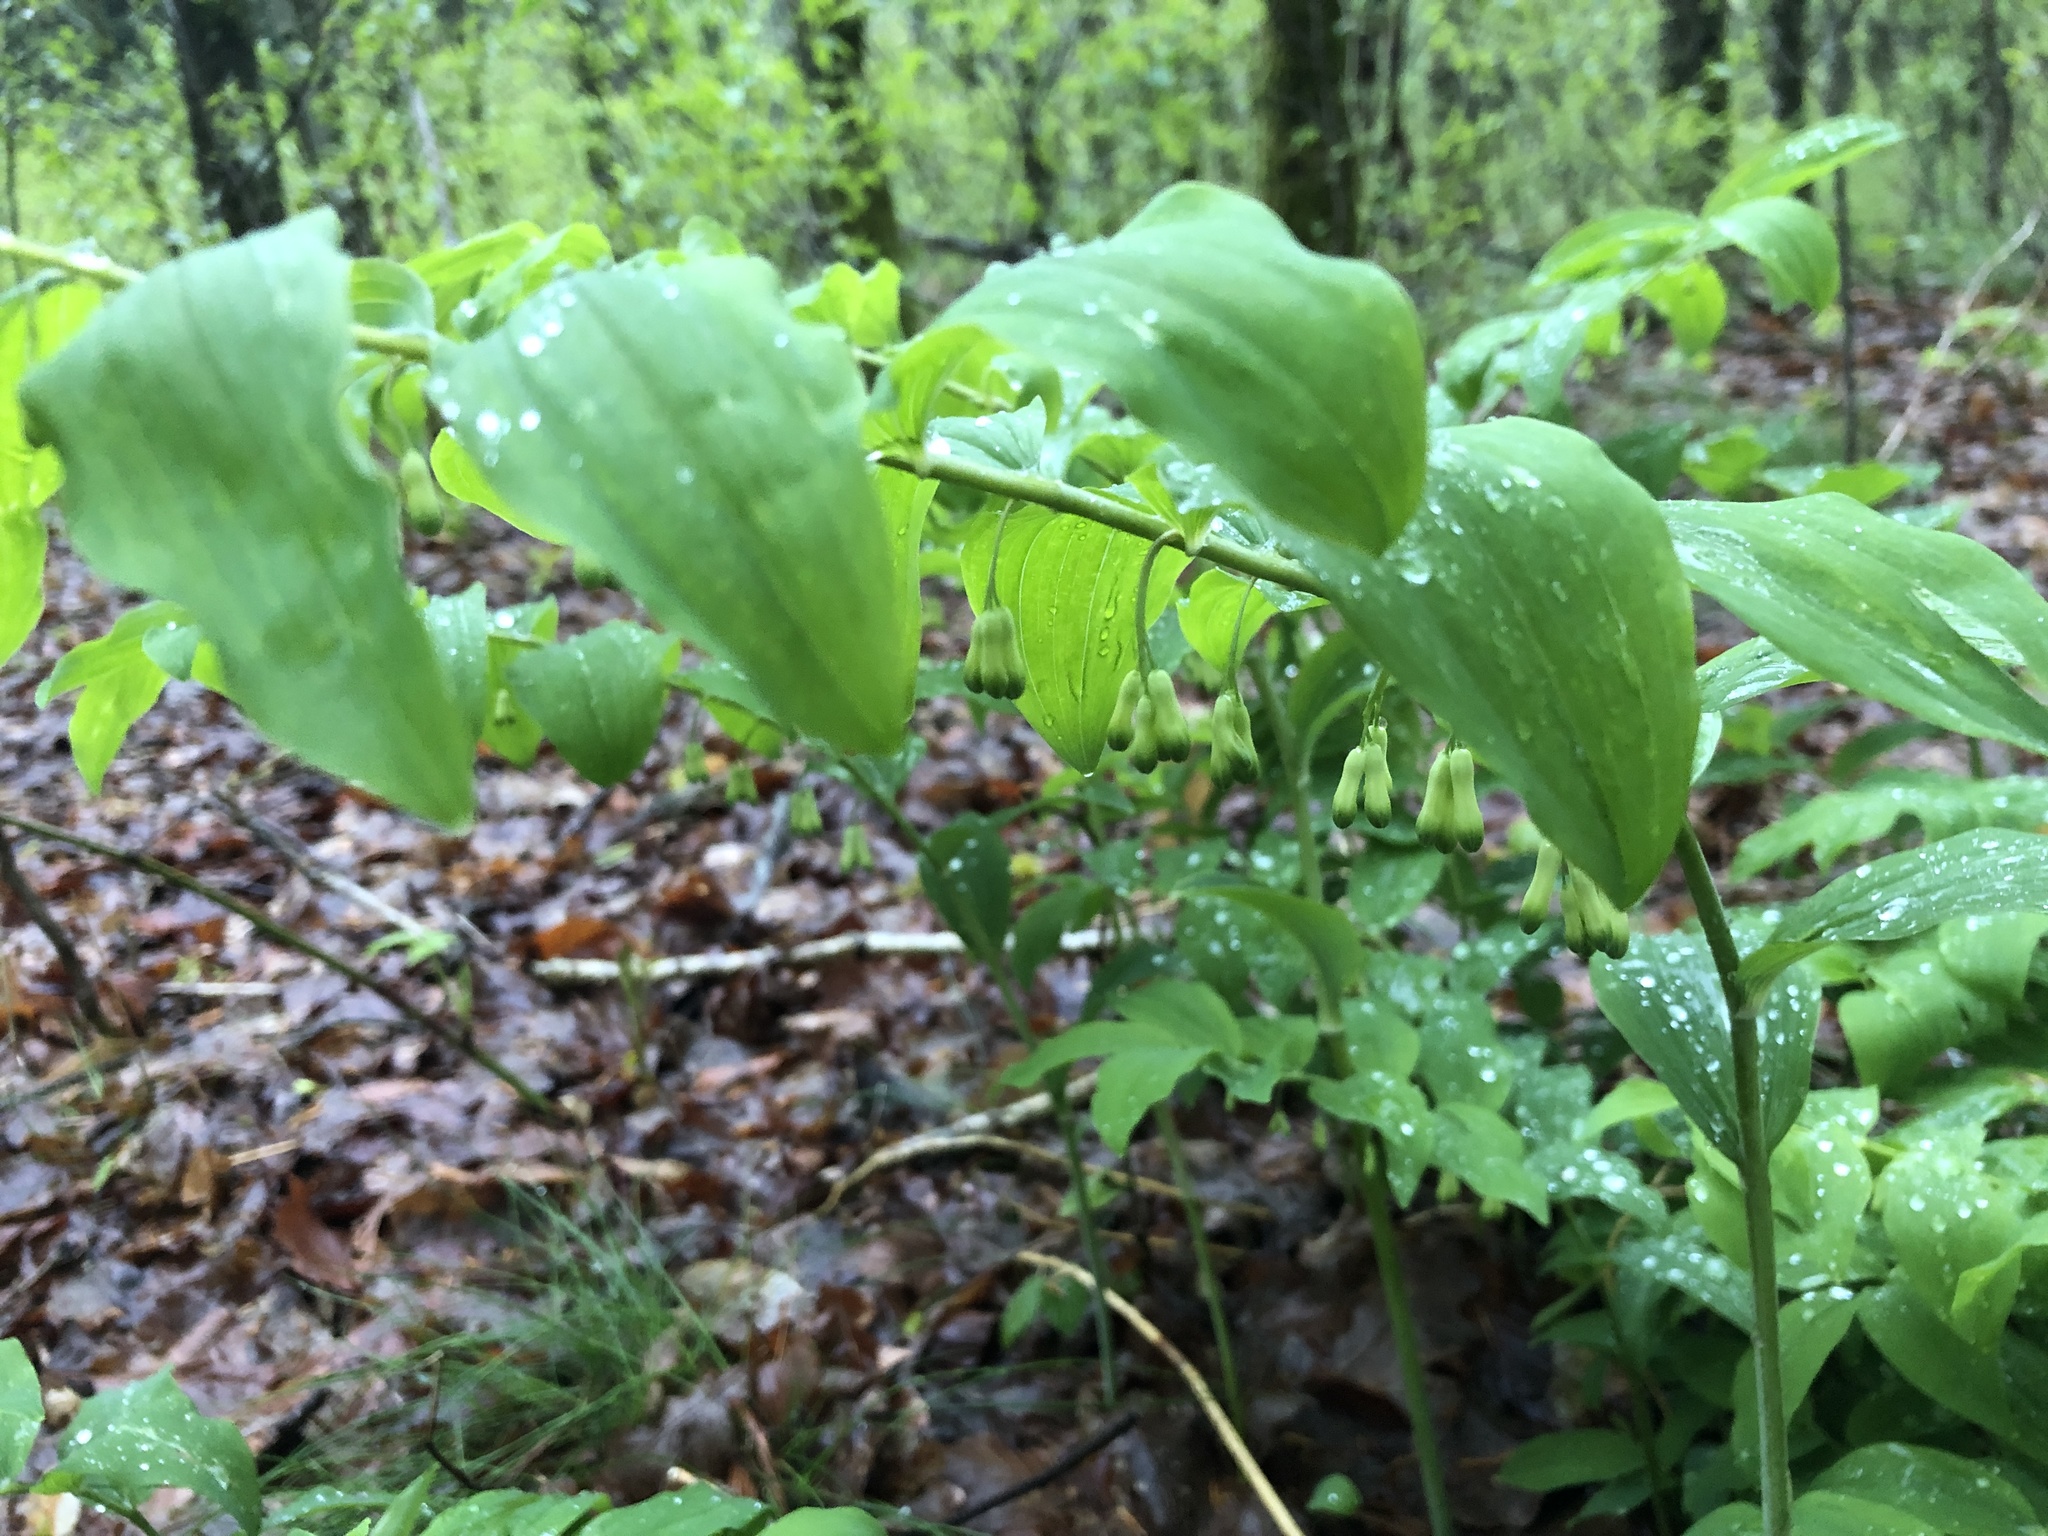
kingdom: Plantae
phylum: Tracheophyta
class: Liliopsida
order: Asparagales
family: Asparagaceae
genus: Polygonatum
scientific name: Polygonatum multiflorum
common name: Solomon's-seal
